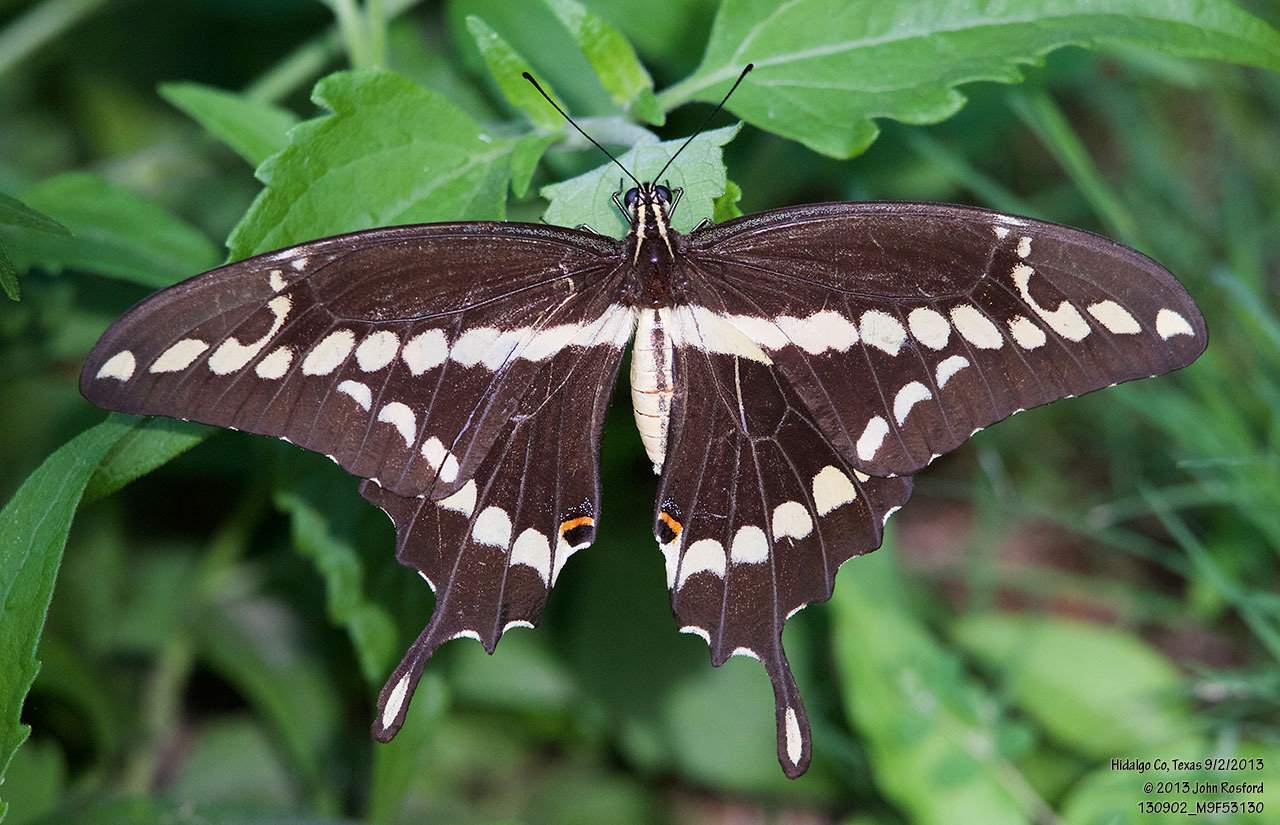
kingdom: Animalia
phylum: Arthropoda
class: Insecta
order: Lepidoptera
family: Papilionidae
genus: Papilio
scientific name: Papilio rumiko
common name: Western giant swallowtail
